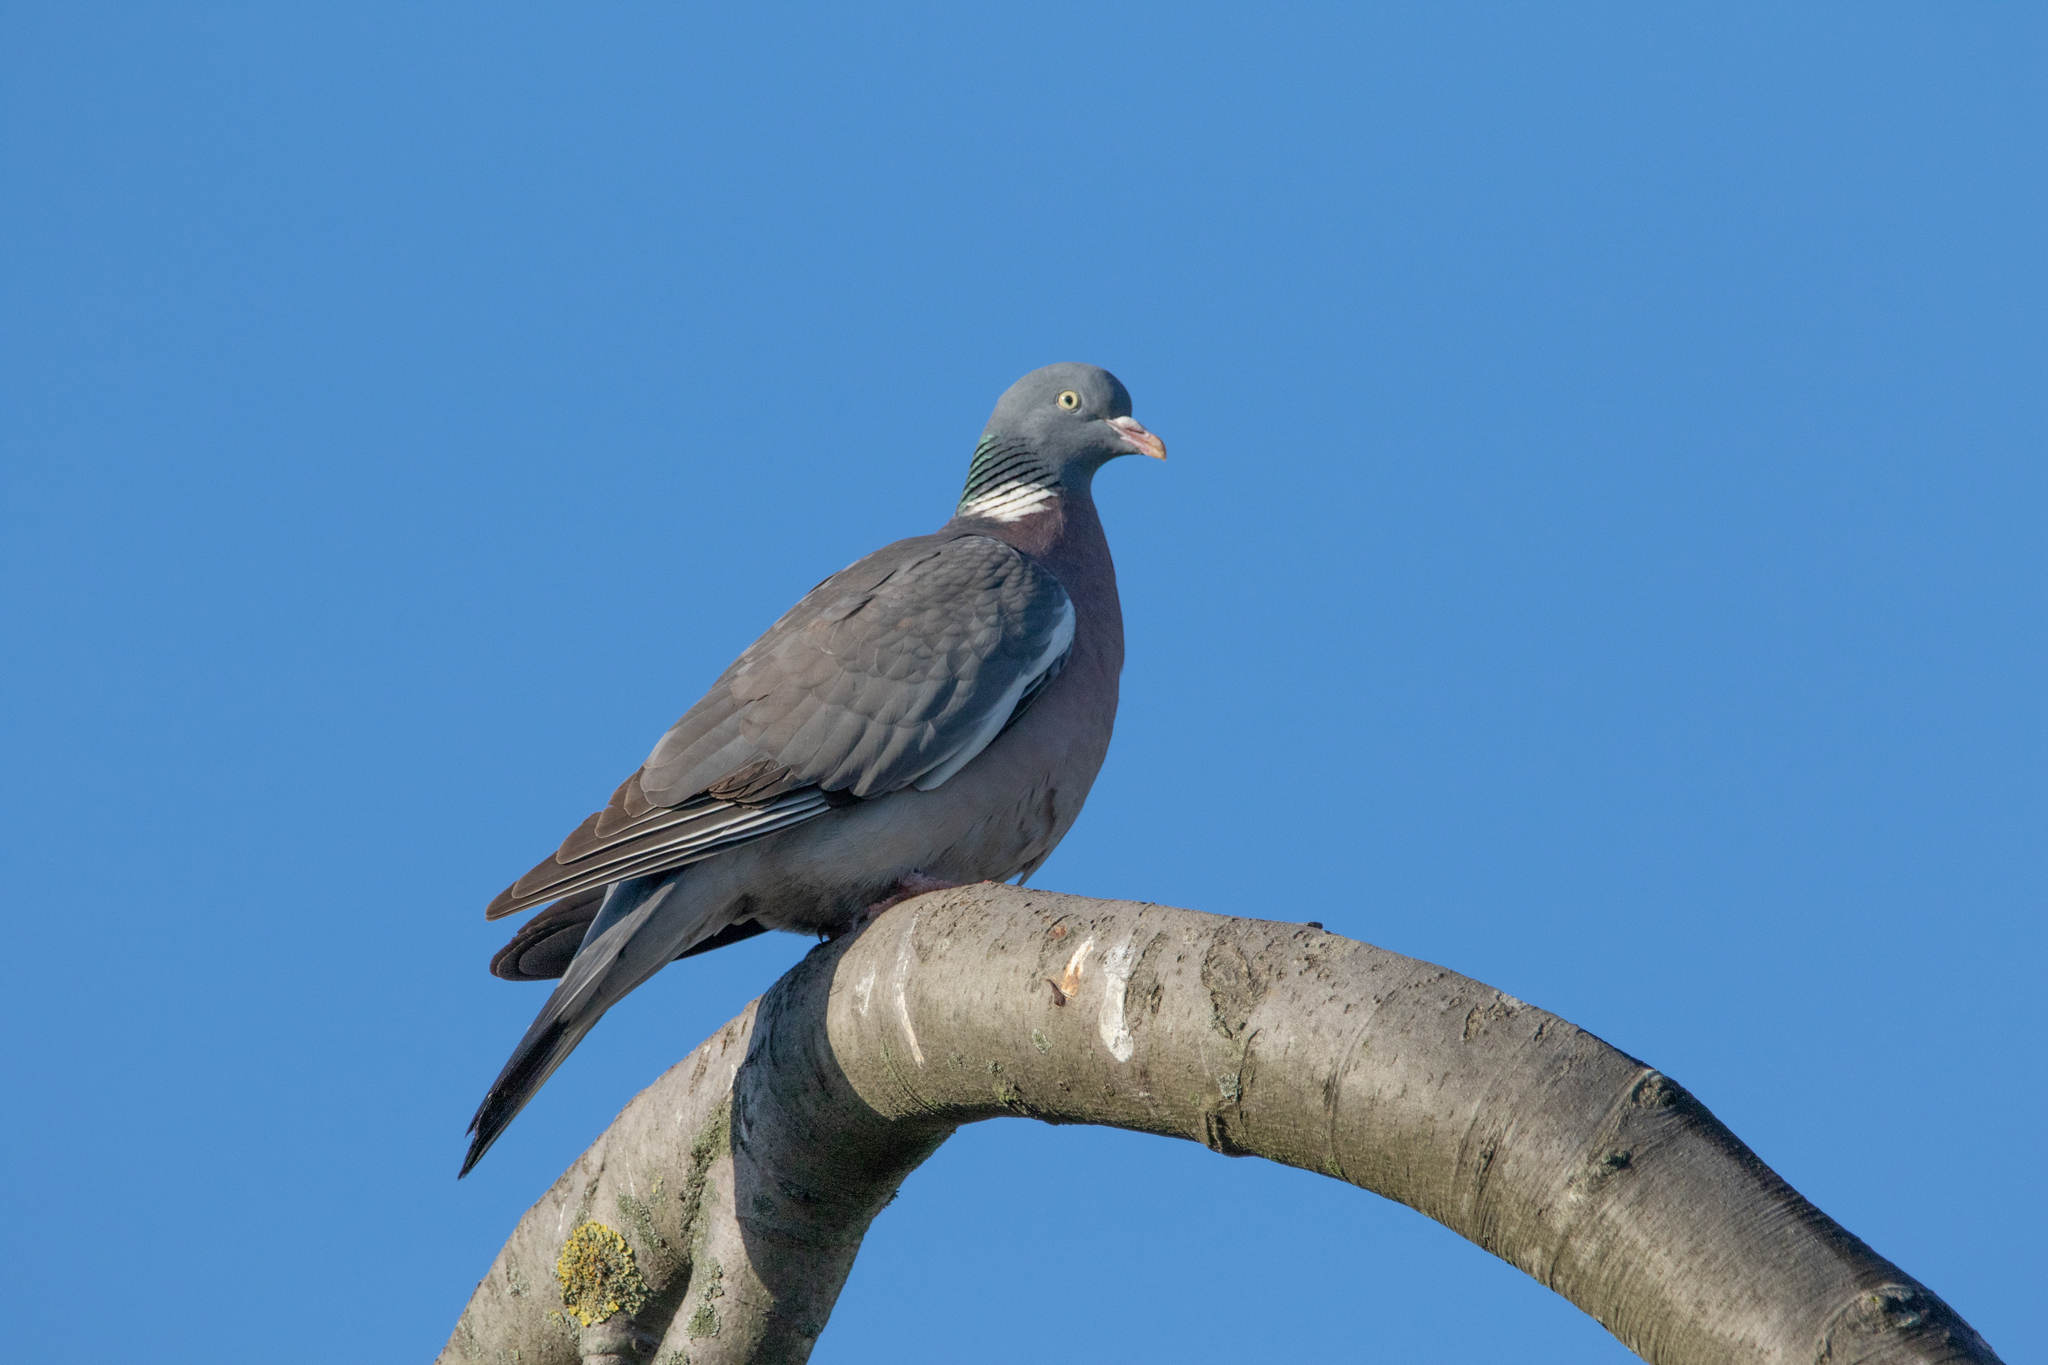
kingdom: Animalia
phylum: Chordata
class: Aves
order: Columbiformes
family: Columbidae
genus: Columba
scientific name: Columba palumbus
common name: Common wood pigeon
